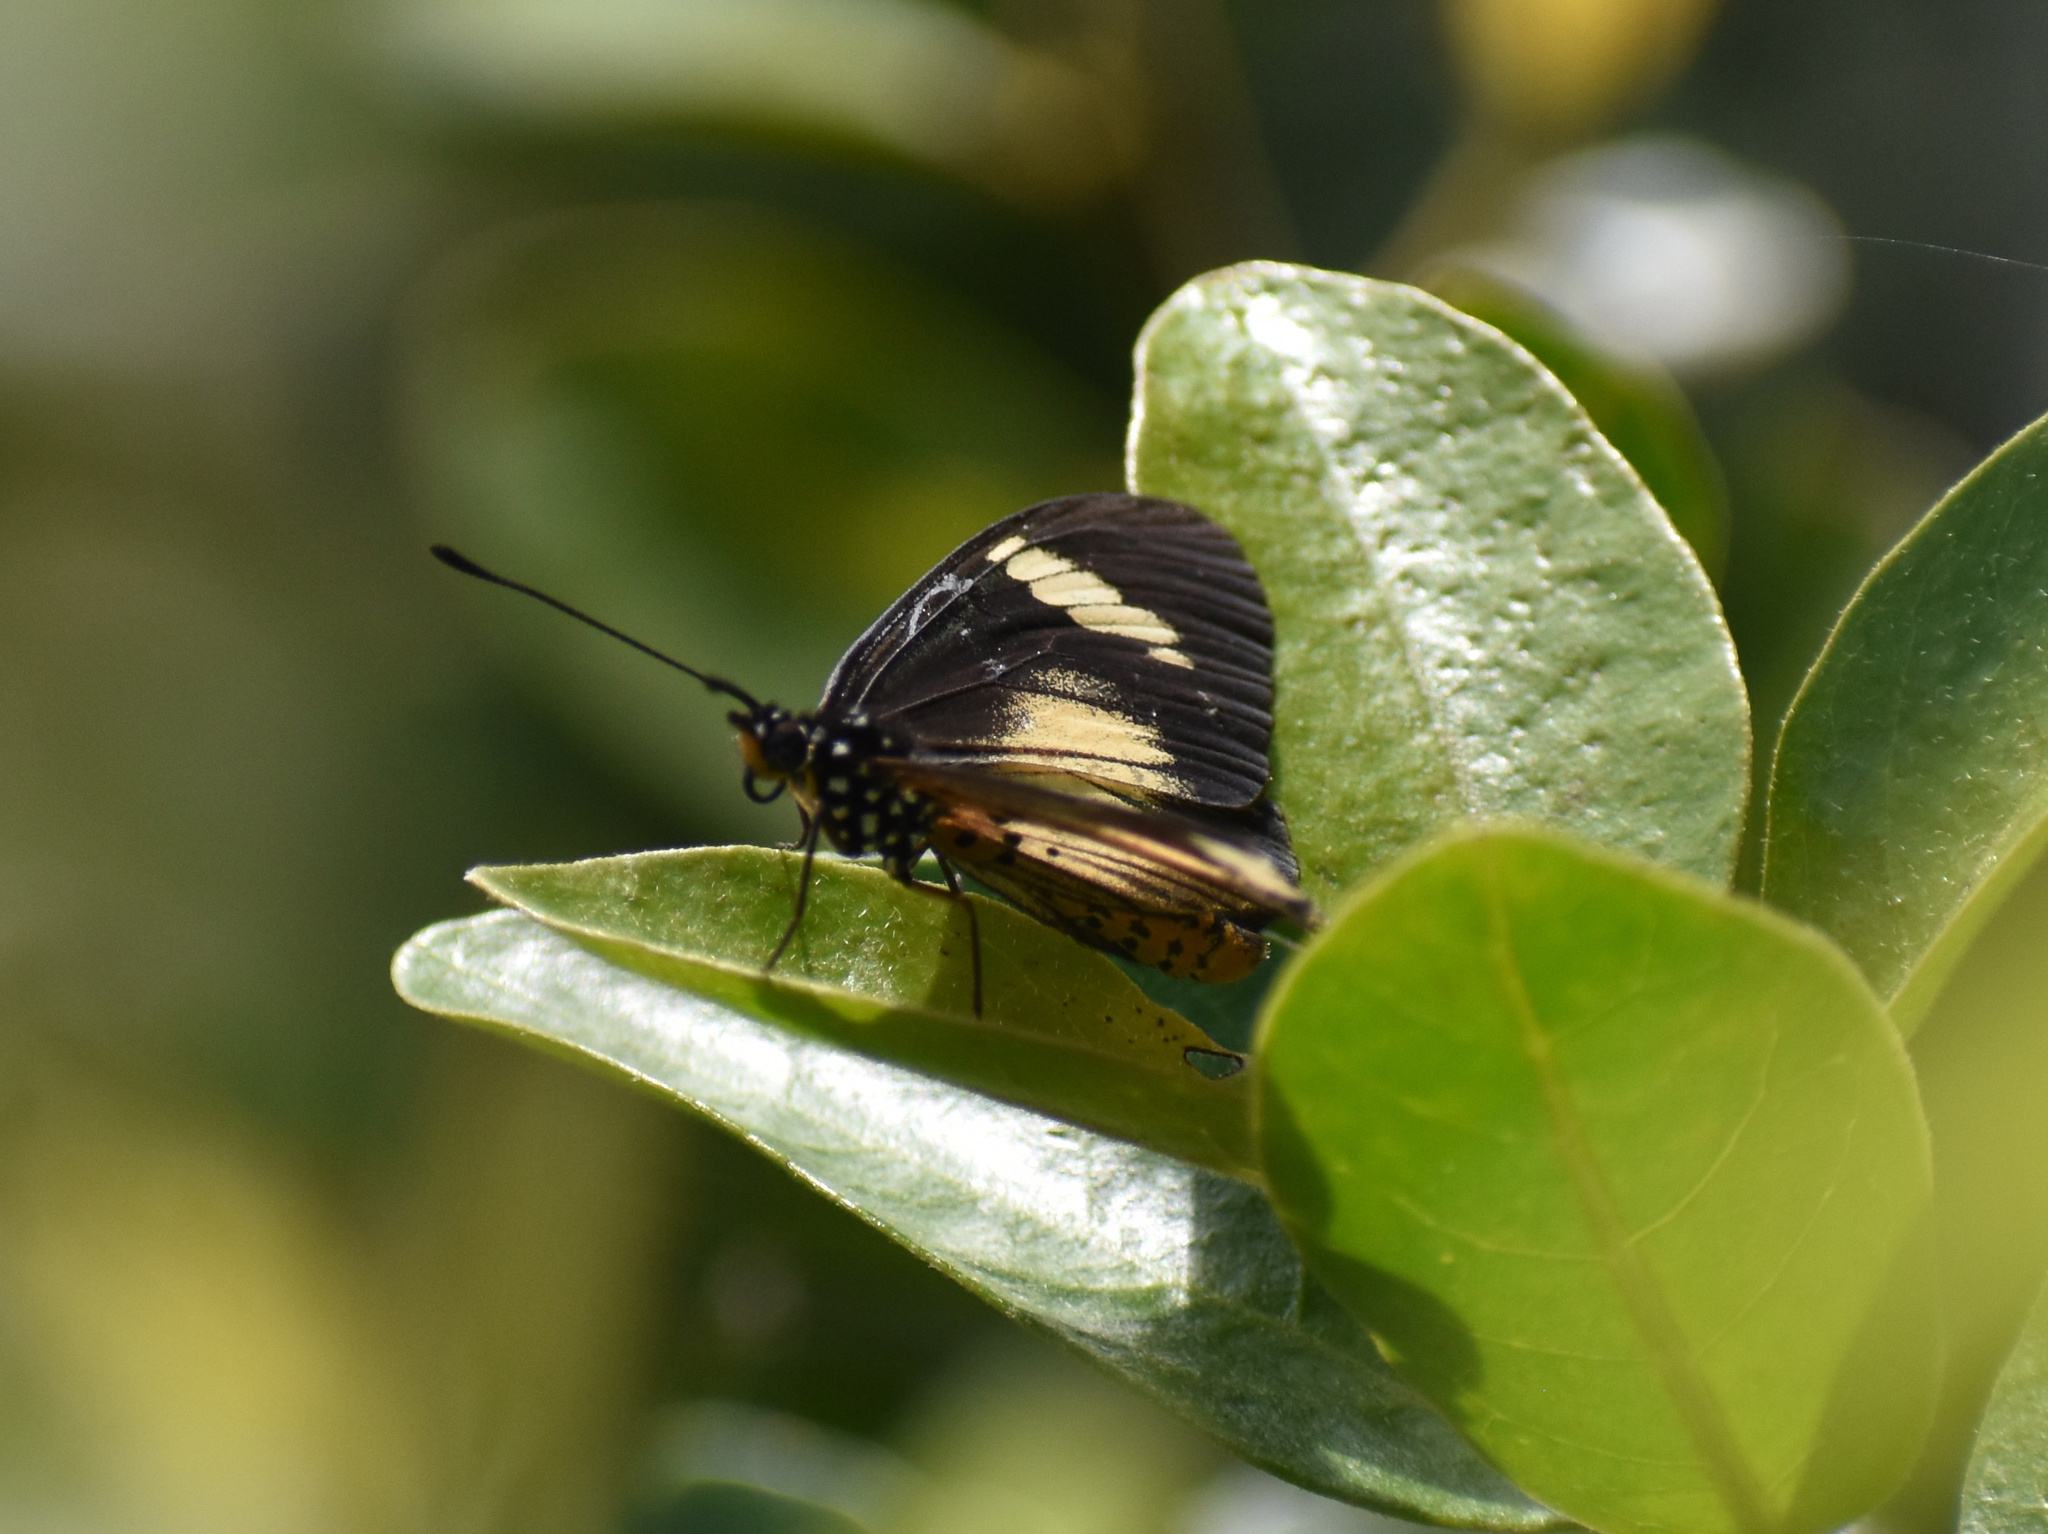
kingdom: Animalia
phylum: Arthropoda
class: Insecta
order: Lepidoptera
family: Nymphalidae
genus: Acraea
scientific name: Acraea esebria
